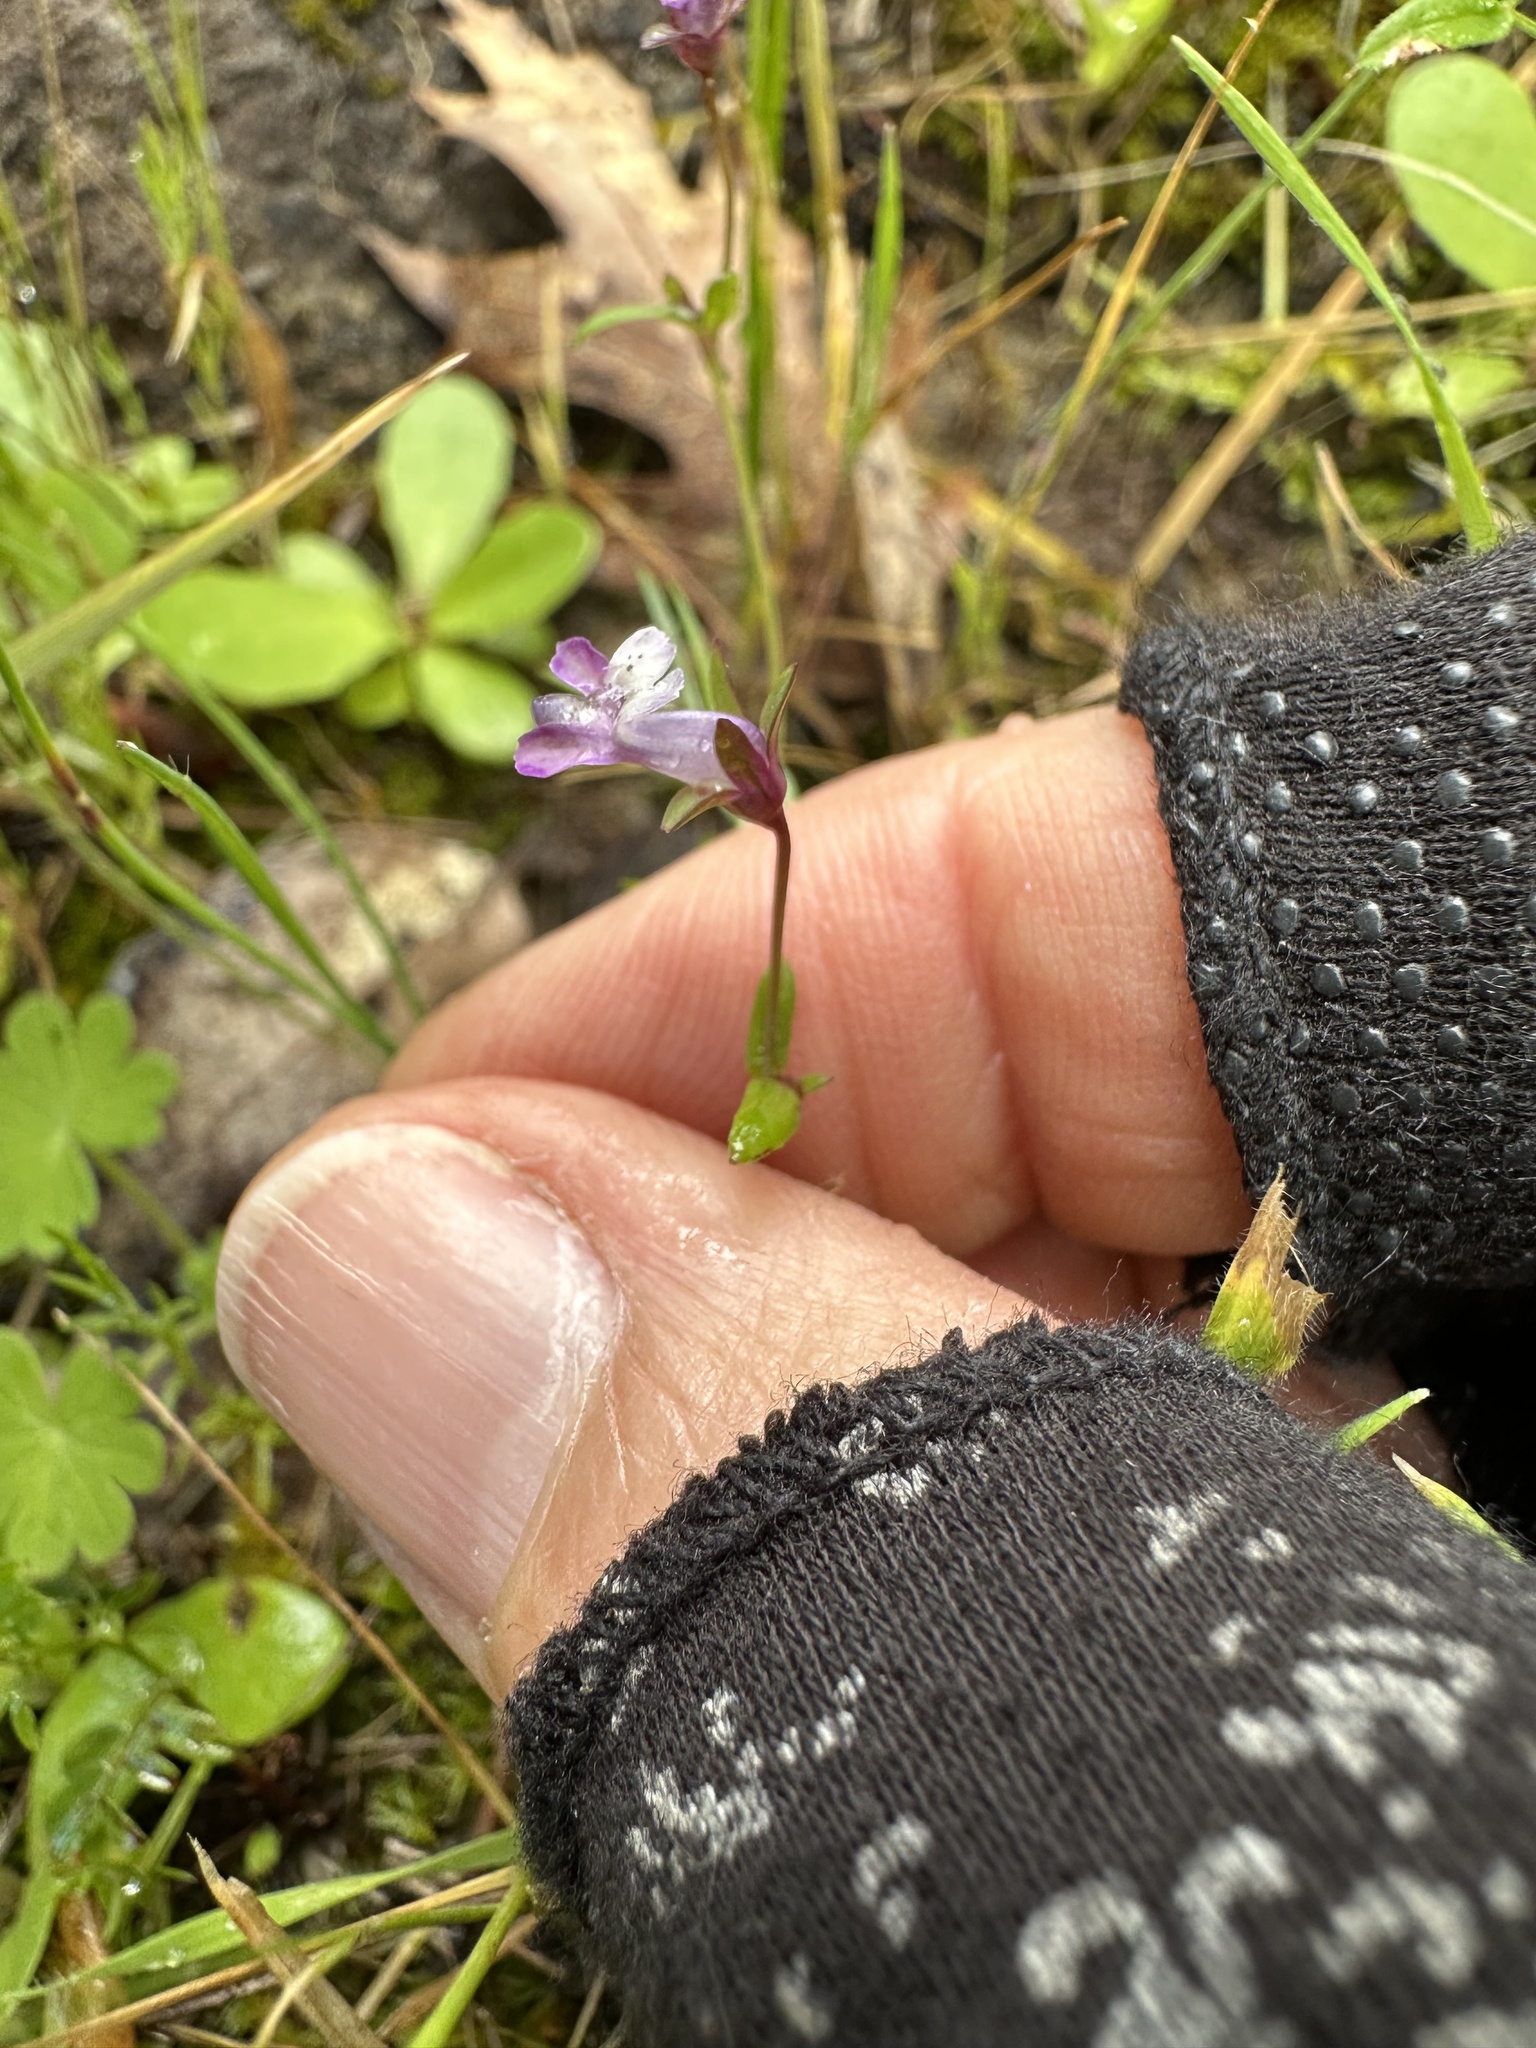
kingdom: Plantae
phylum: Tracheophyta
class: Magnoliopsida
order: Lamiales
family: Plantaginaceae
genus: Collinsia
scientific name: Collinsia sparsiflora
